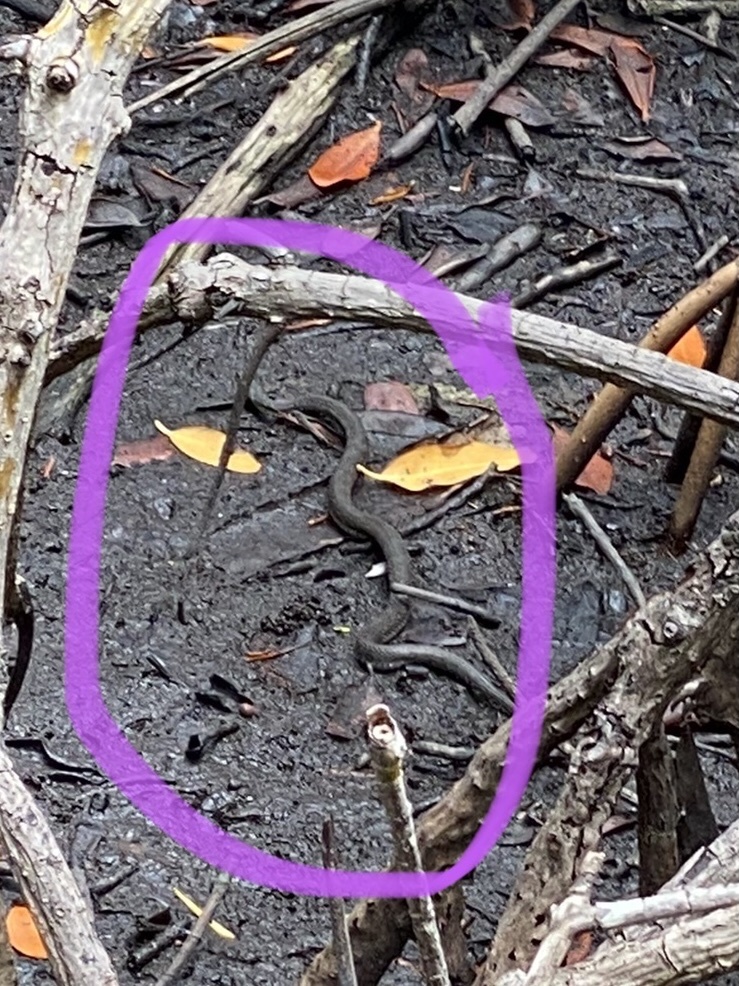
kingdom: Animalia
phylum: Chordata
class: Squamata
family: Colubridae
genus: Nerodia
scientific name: Nerodia clarkii
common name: Atlantic saltmarsh snake
